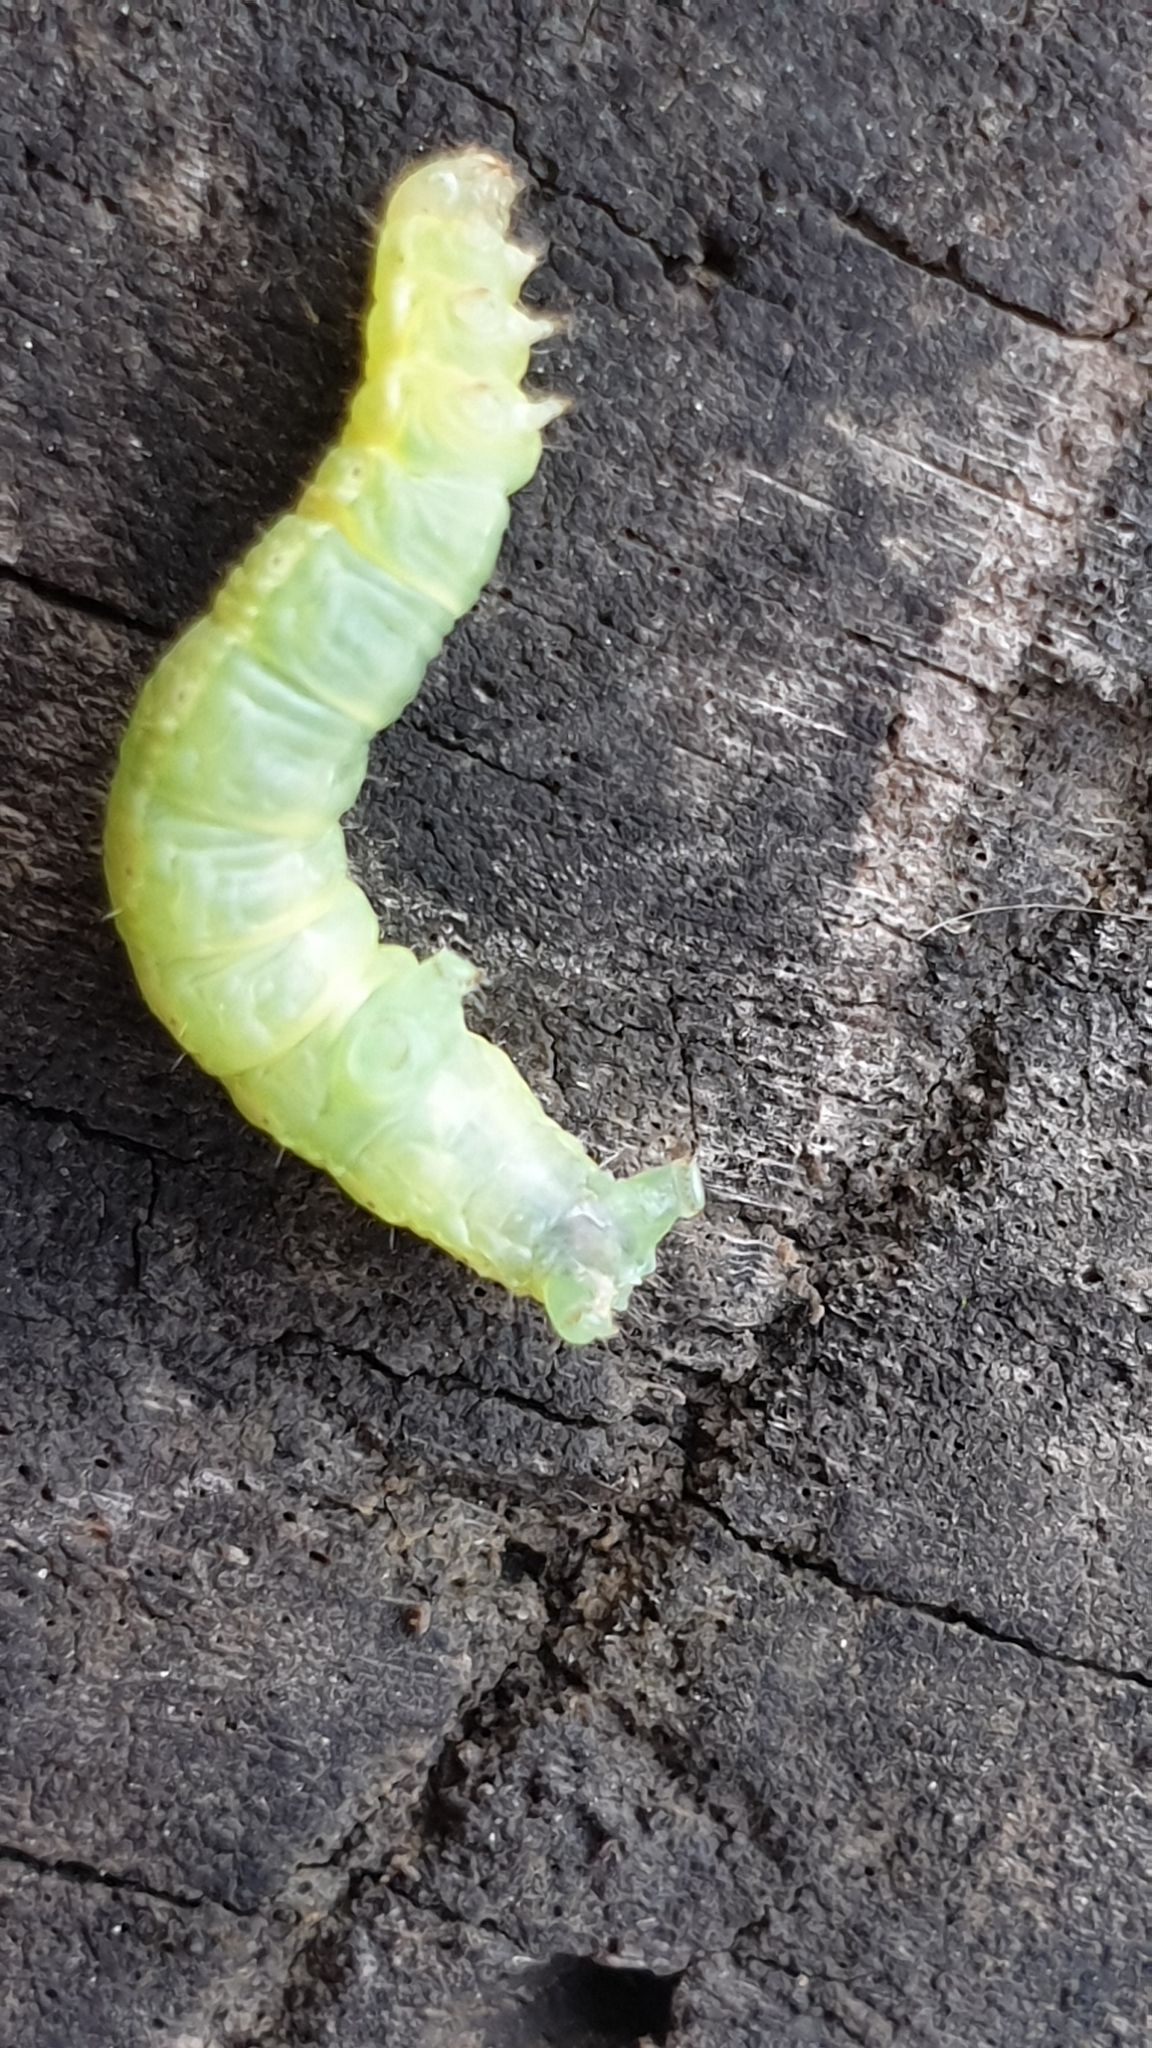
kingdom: Animalia
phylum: Arthropoda
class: Insecta
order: Lepidoptera
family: Geometridae
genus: Operophtera
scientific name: Operophtera brumata
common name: Winter moth
